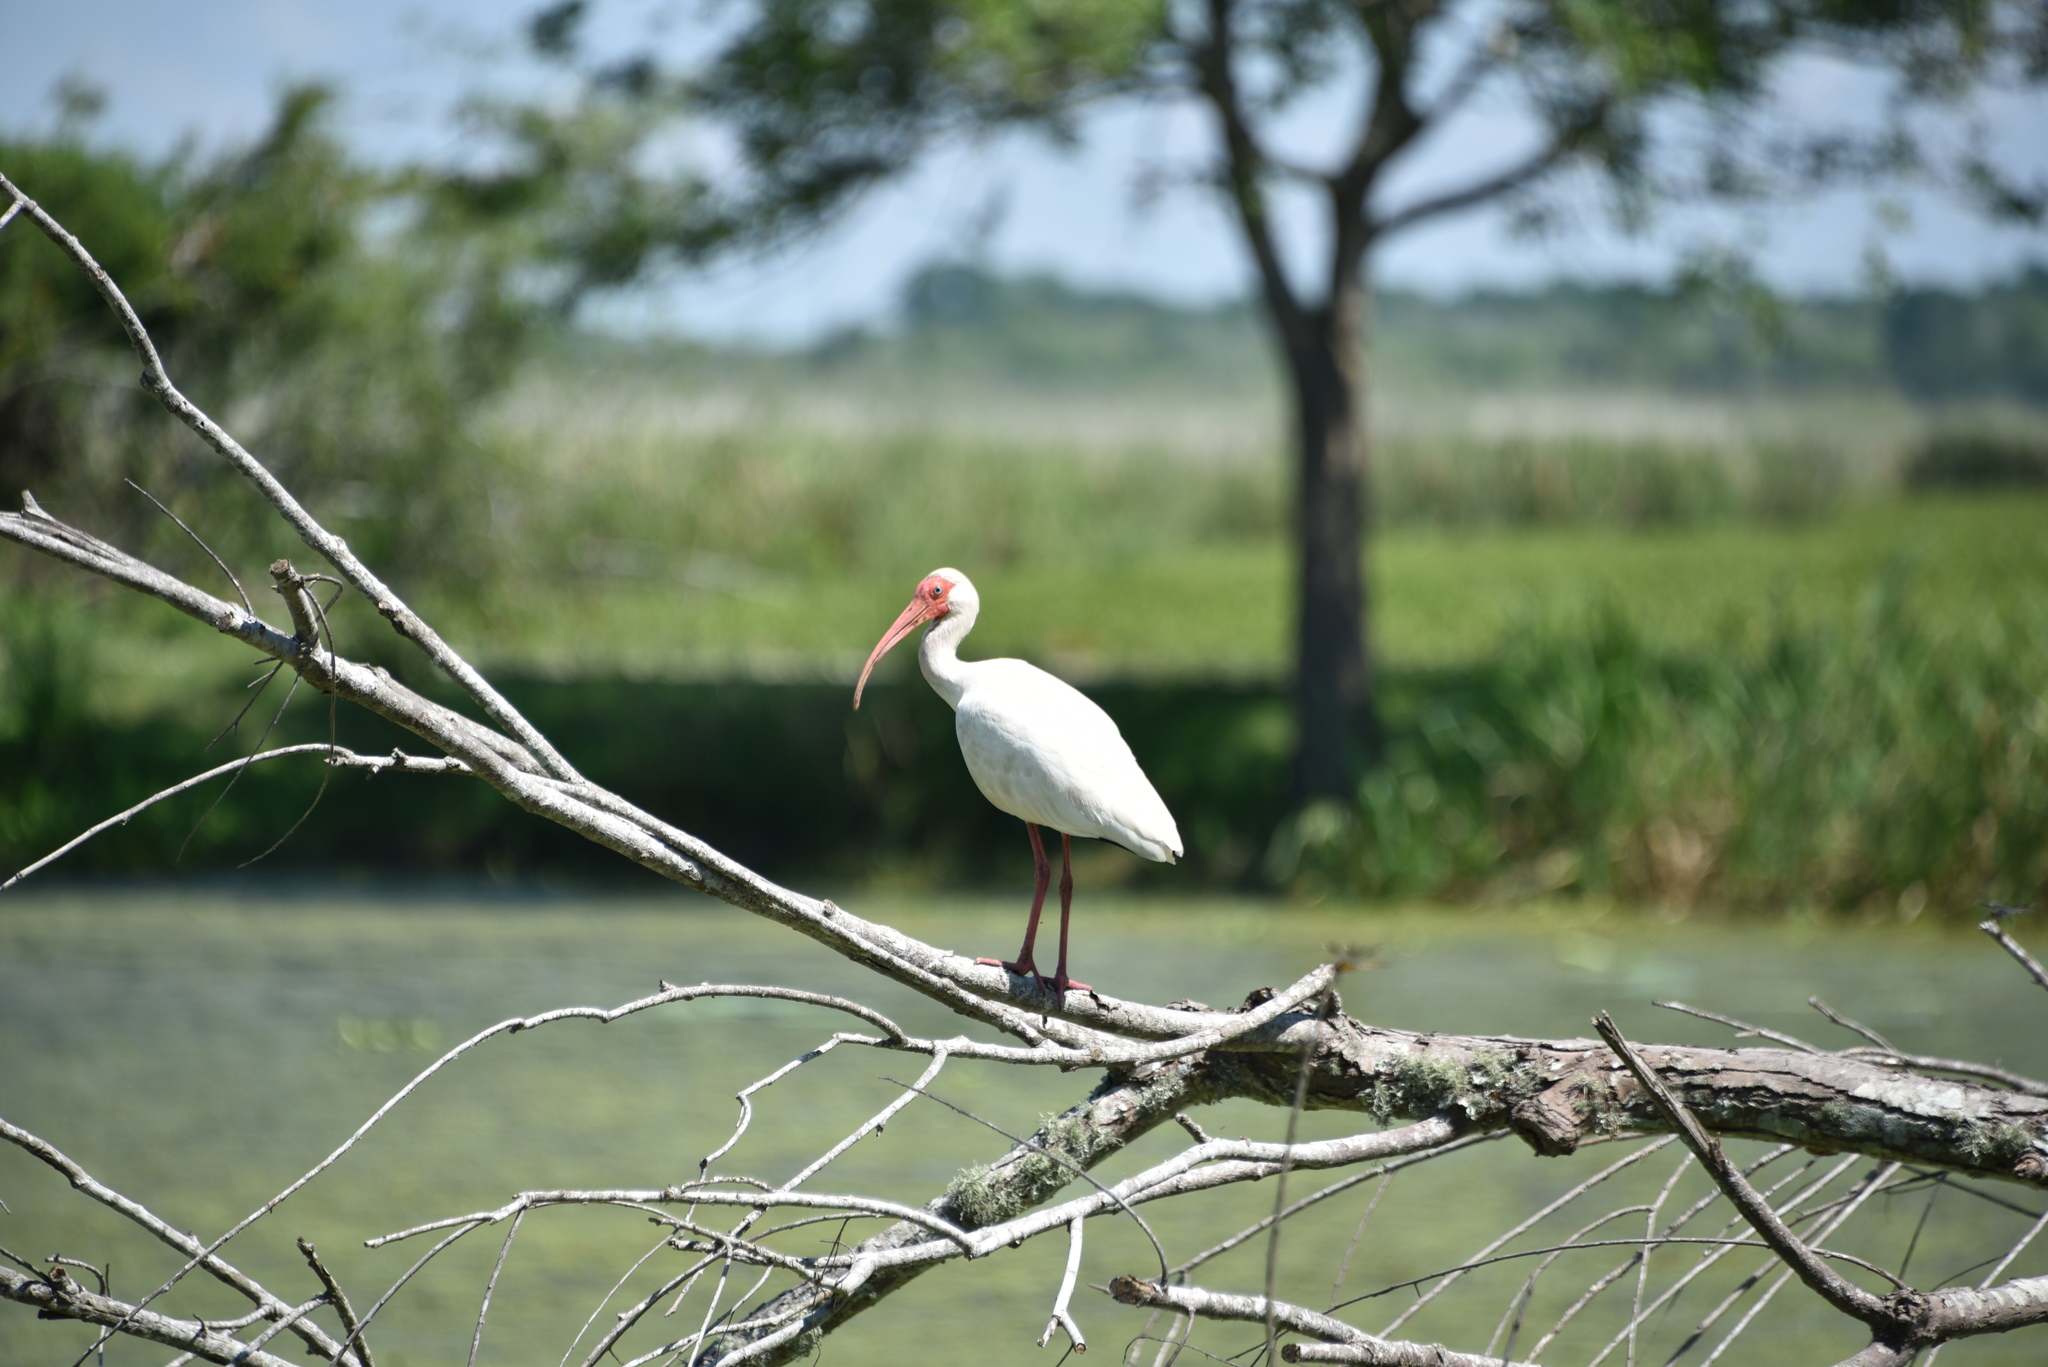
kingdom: Animalia
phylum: Chordata
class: Aves
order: Pelecaniformes
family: Threskiornithidae
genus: Eudocimus
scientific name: Eudocimus albus
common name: White ibis
